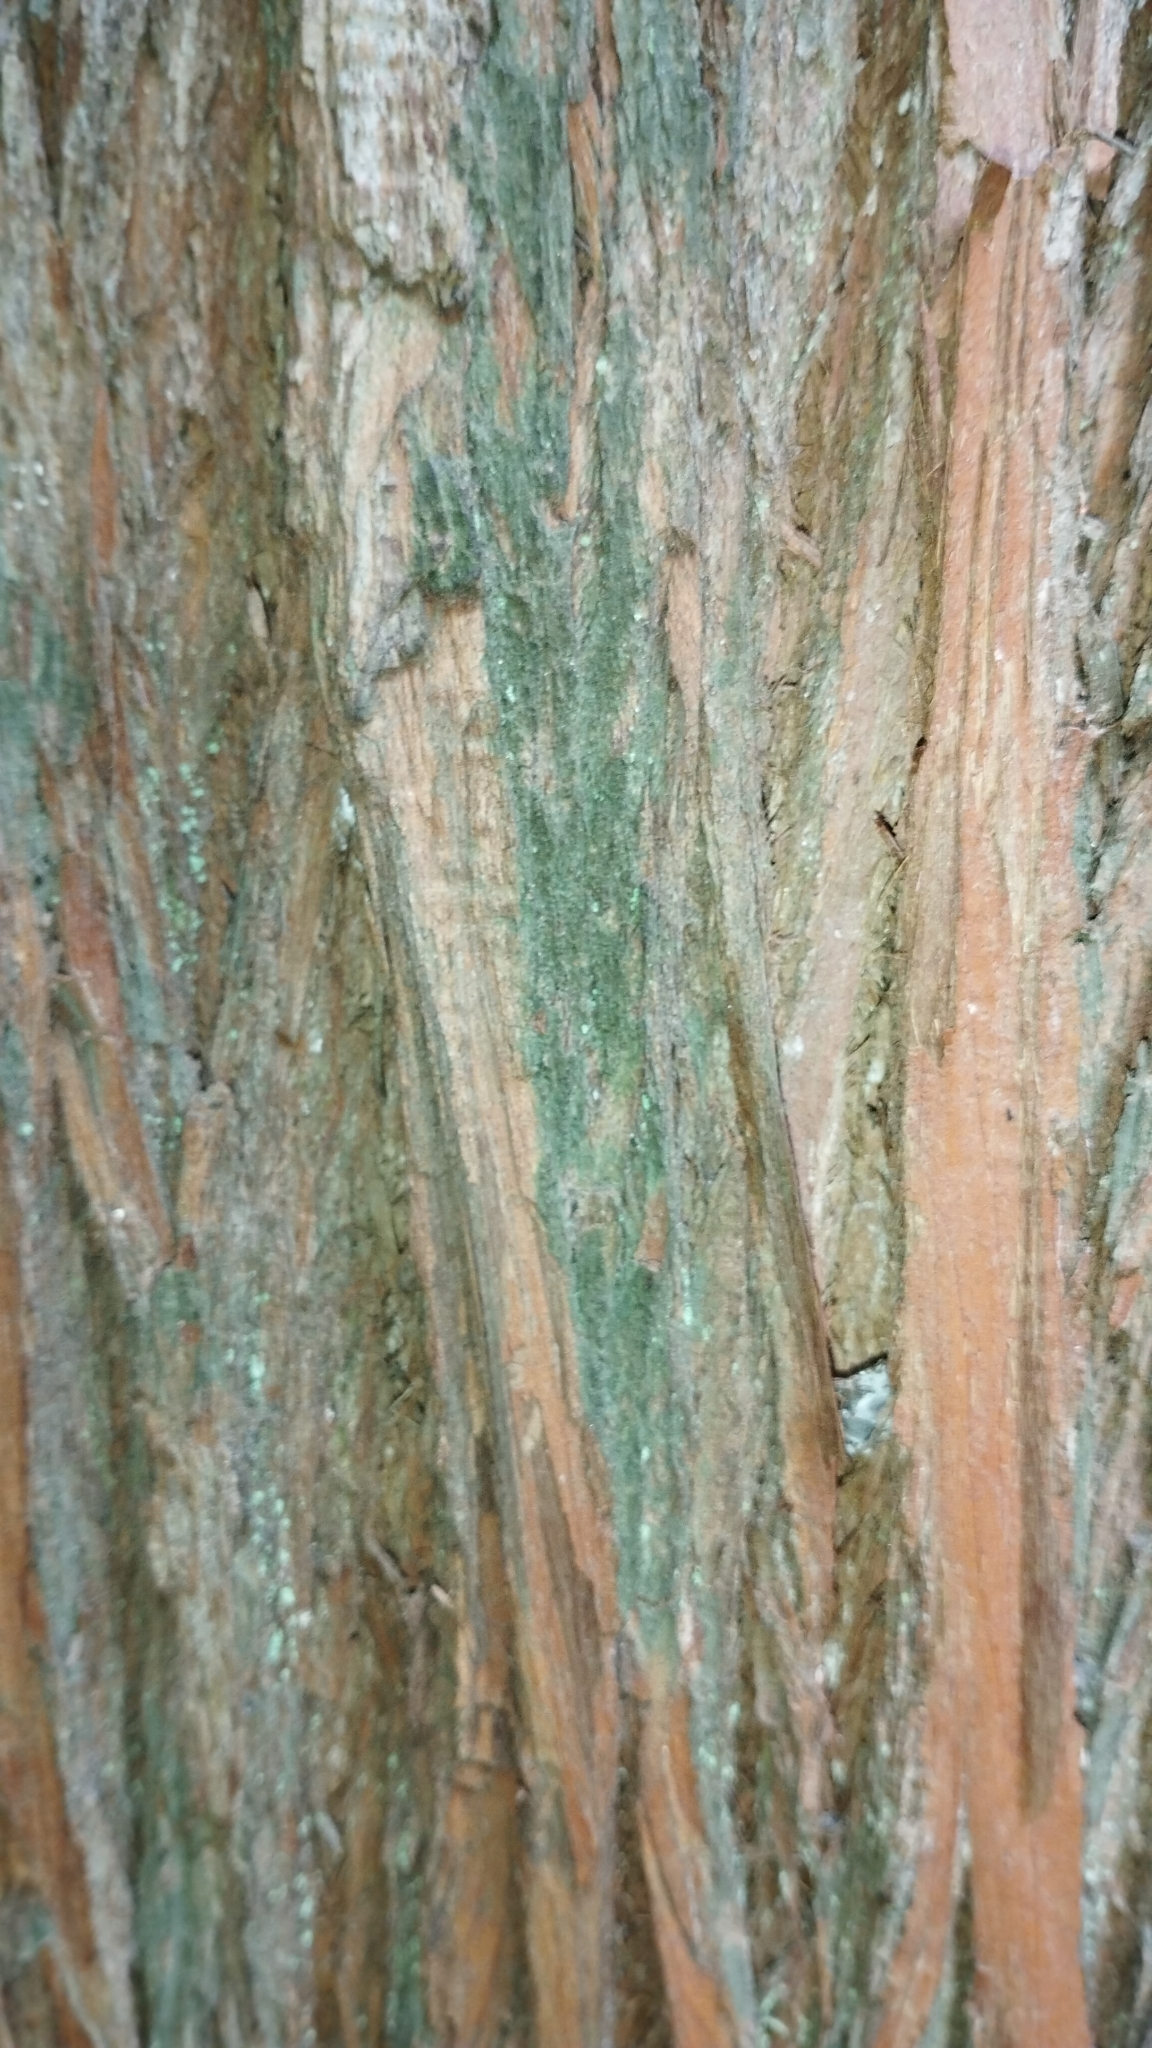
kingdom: Plantae
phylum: Tracheophyta
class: Pinopsida
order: Pinales
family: Podocarpaceae
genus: Podocarpus
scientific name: Podocarpus totara
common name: Totara
